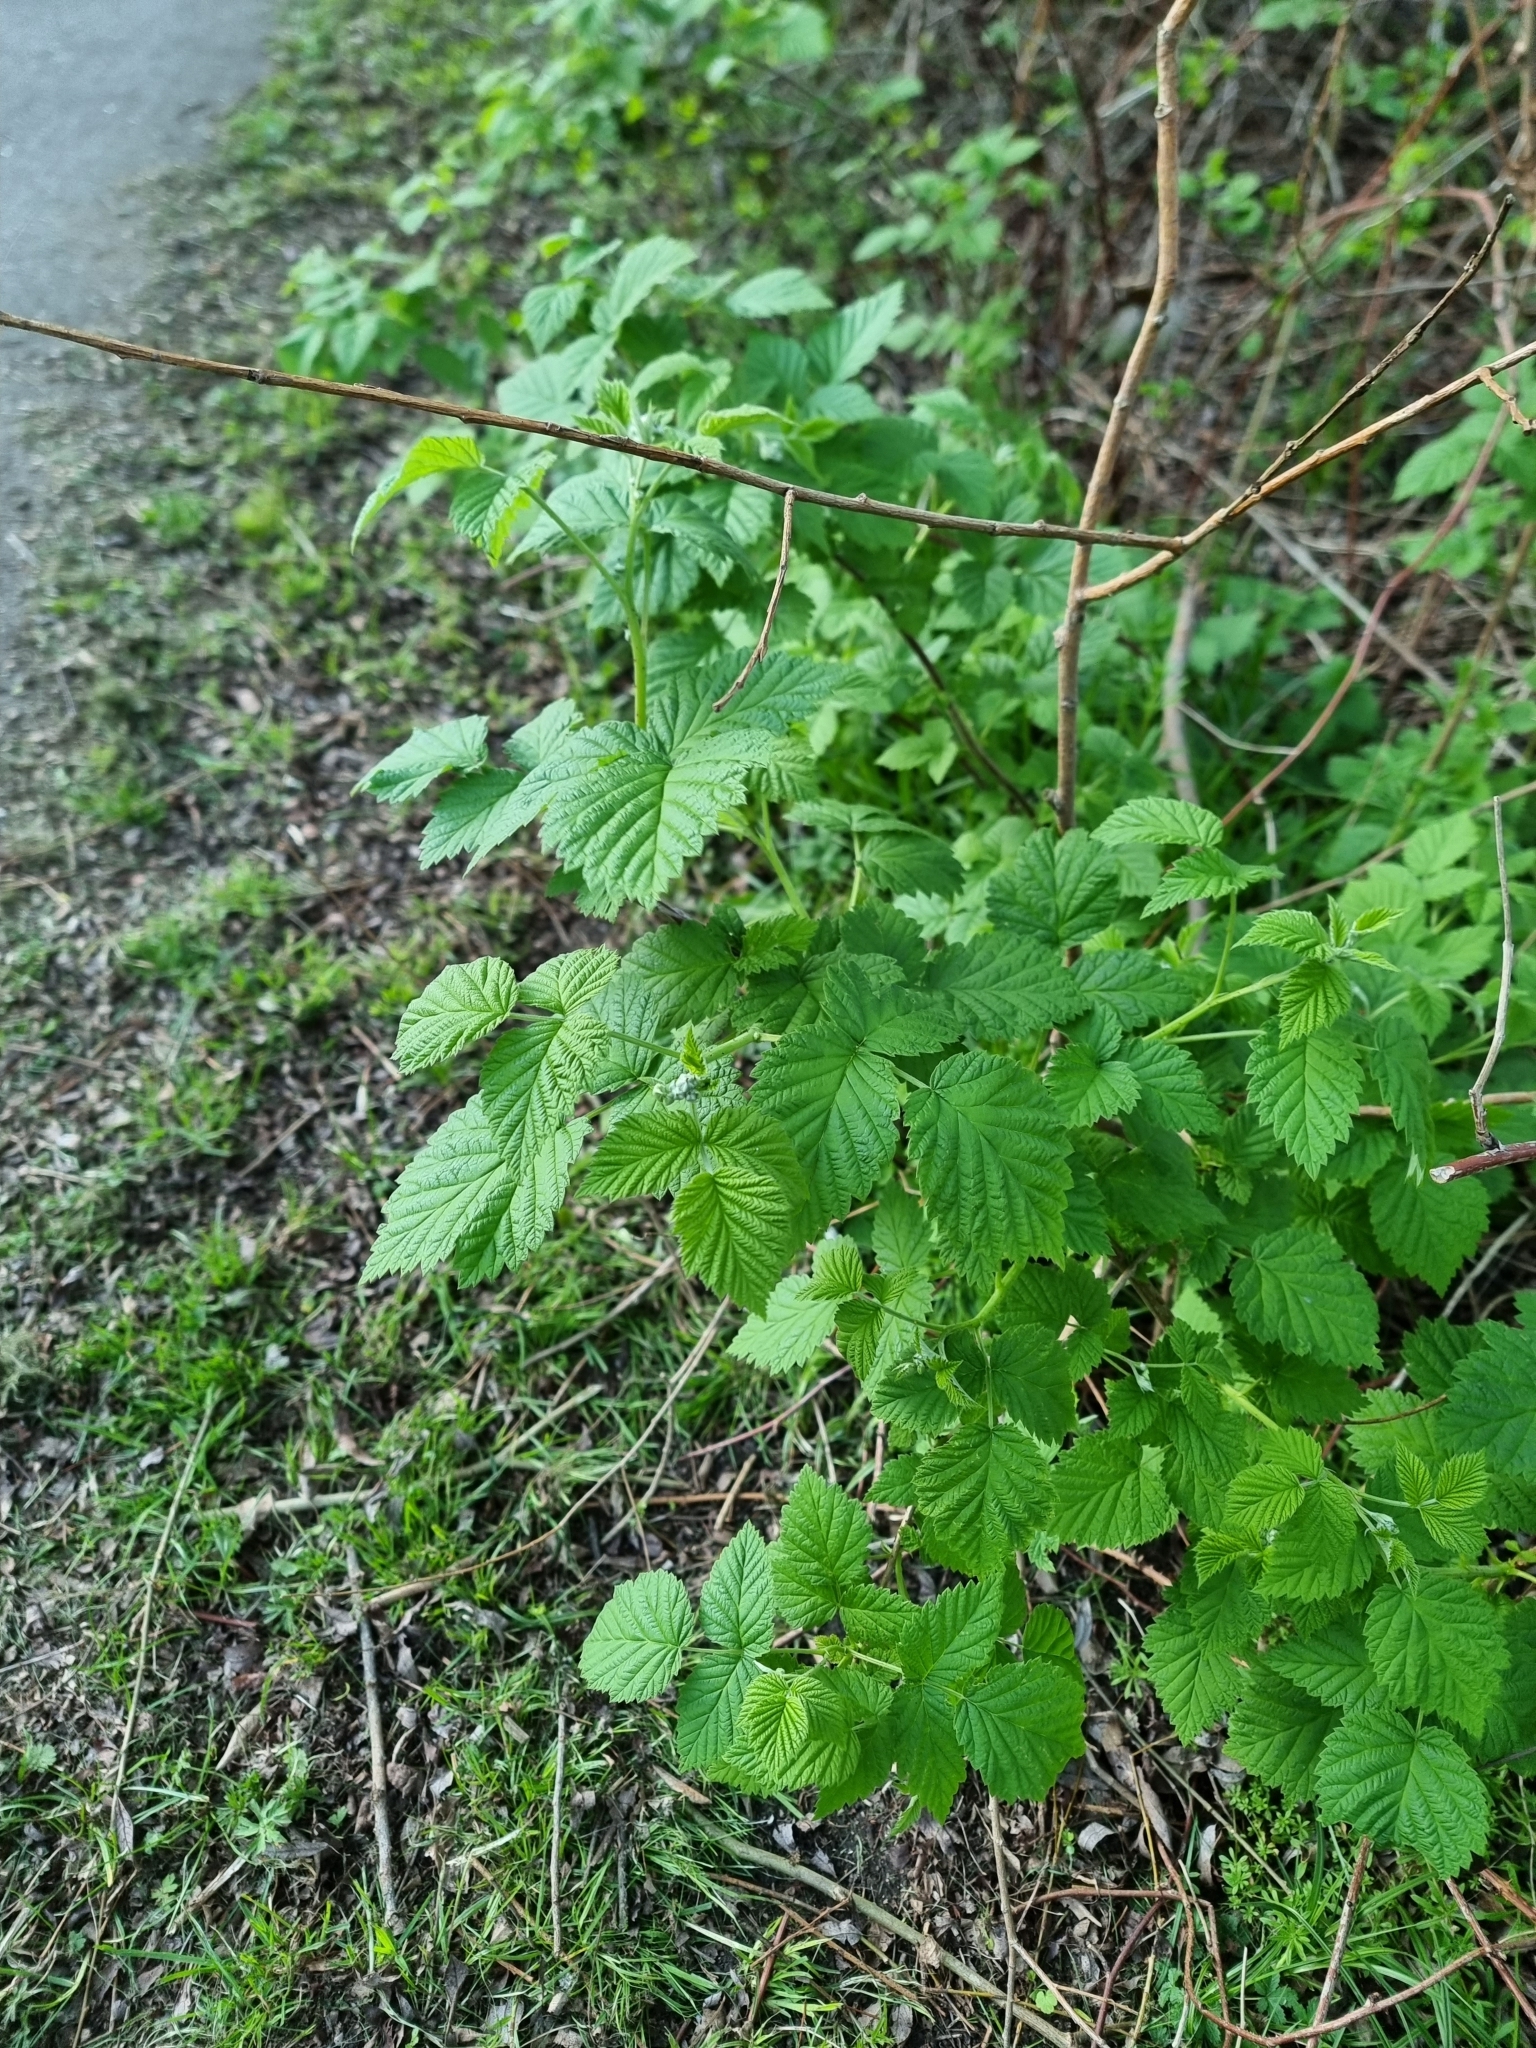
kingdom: Plantae
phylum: Tracheophyta
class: Magnoliopsida
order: Rosales
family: Rosaceae
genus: Rubus
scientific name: Rubus idaeus
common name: Raspberry
